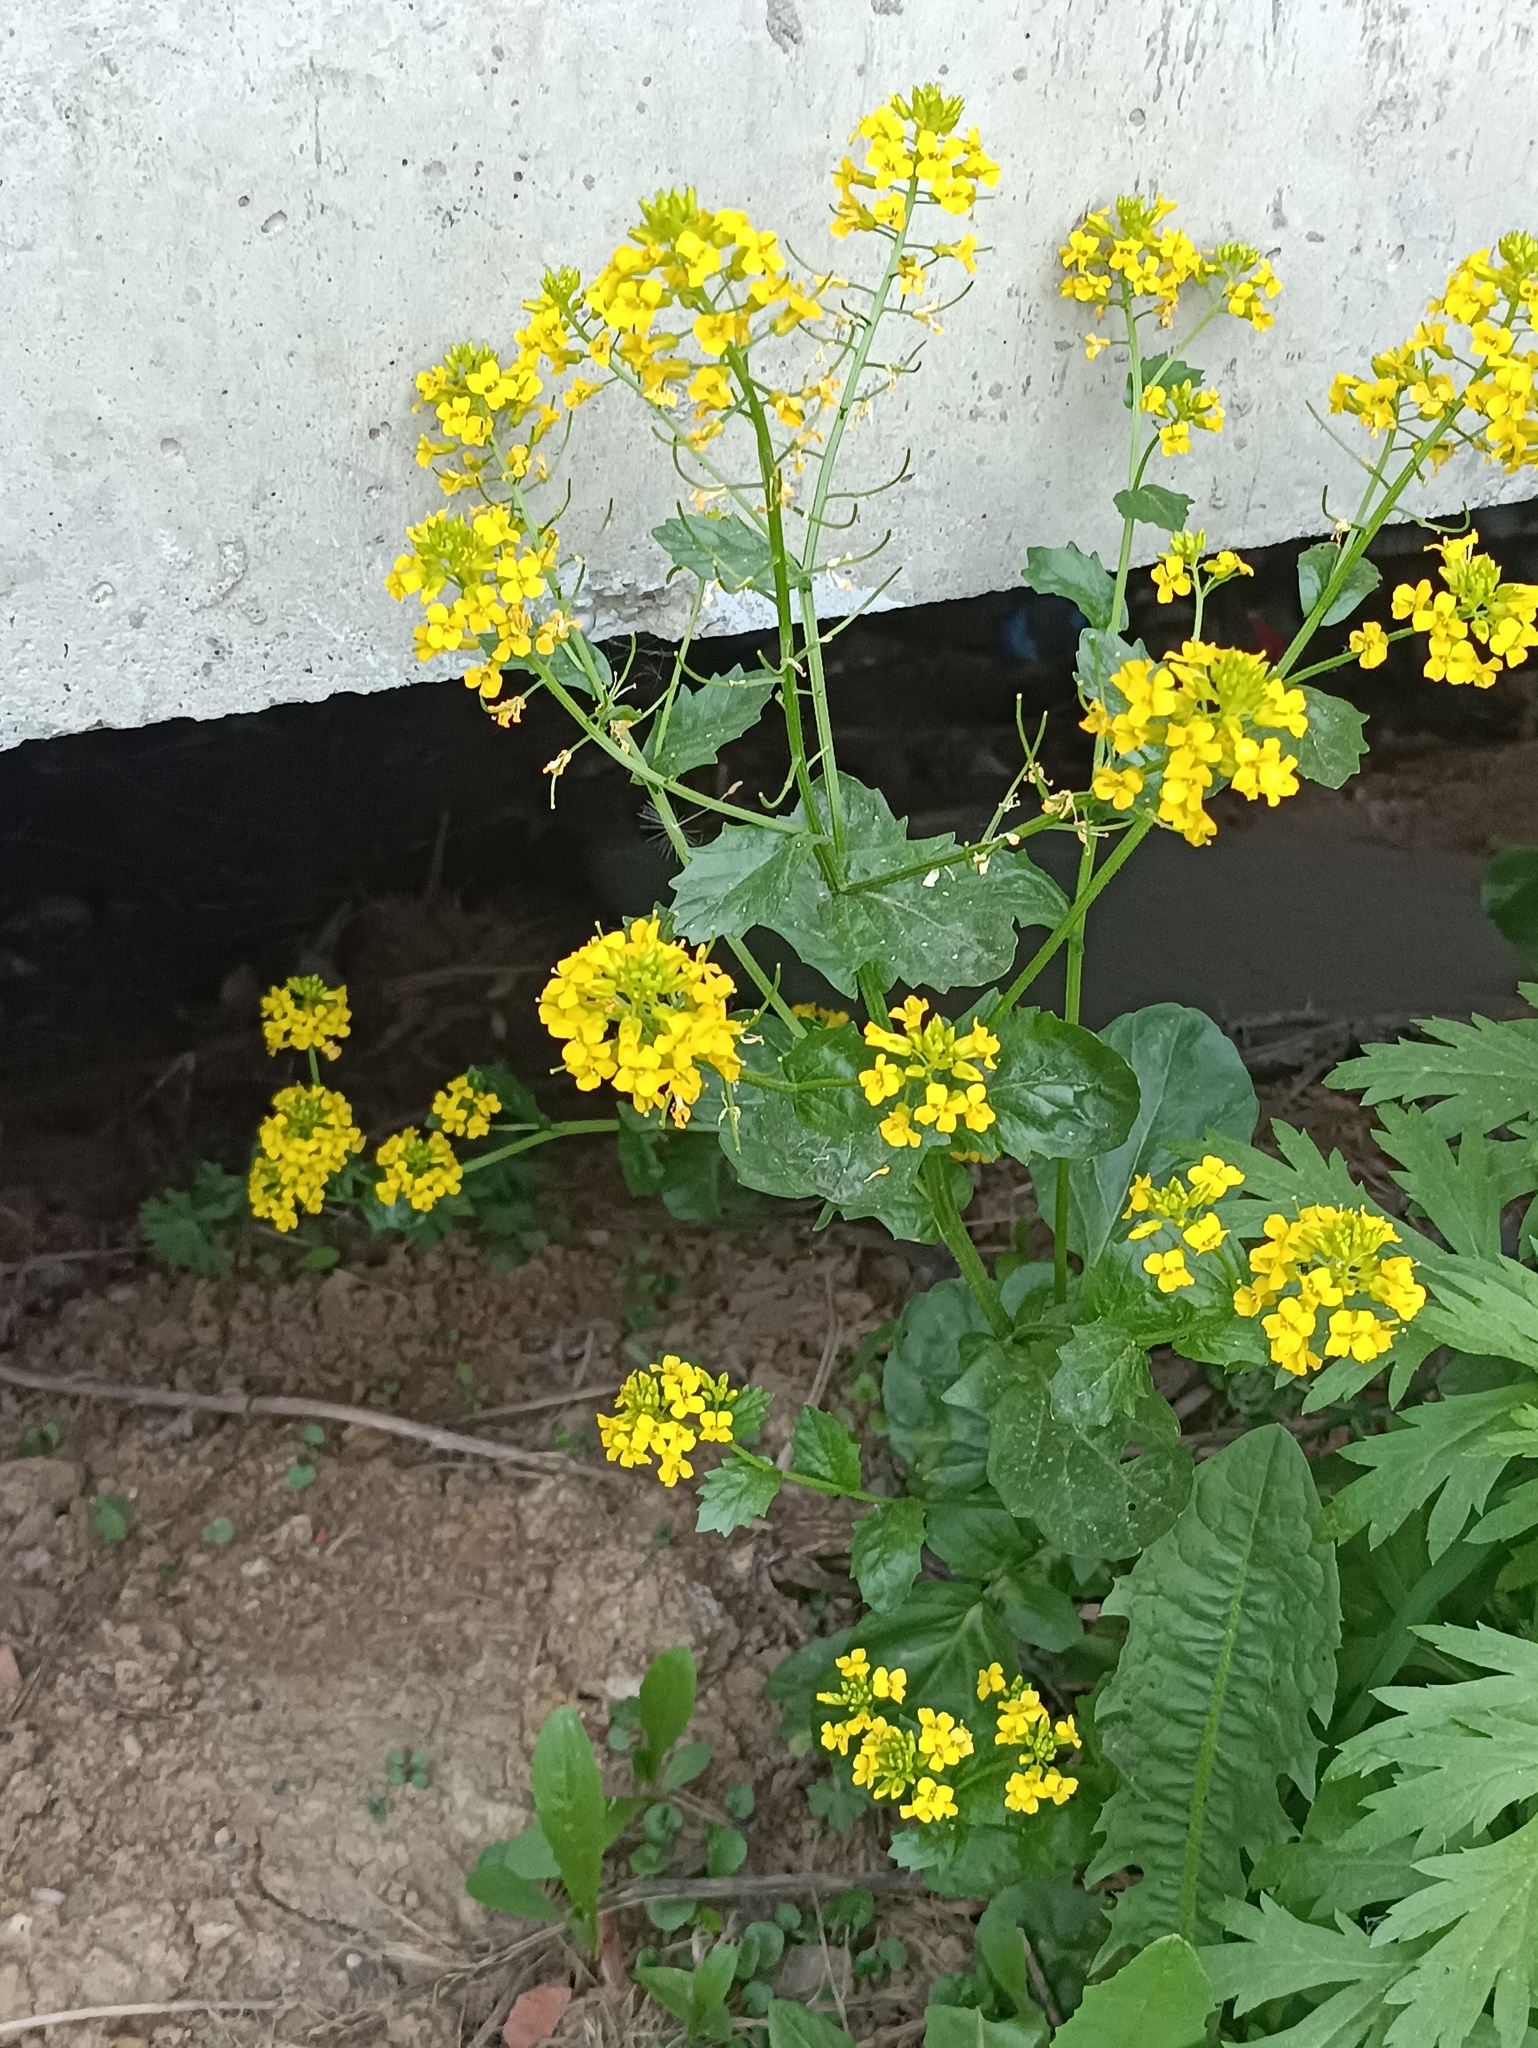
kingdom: Plantae
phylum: Tracheophyta
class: Magnoliopsida
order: Brassicales
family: Brassicaceae
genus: Barbarea
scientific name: Barbarea vulgaris
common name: Cressy-greens
